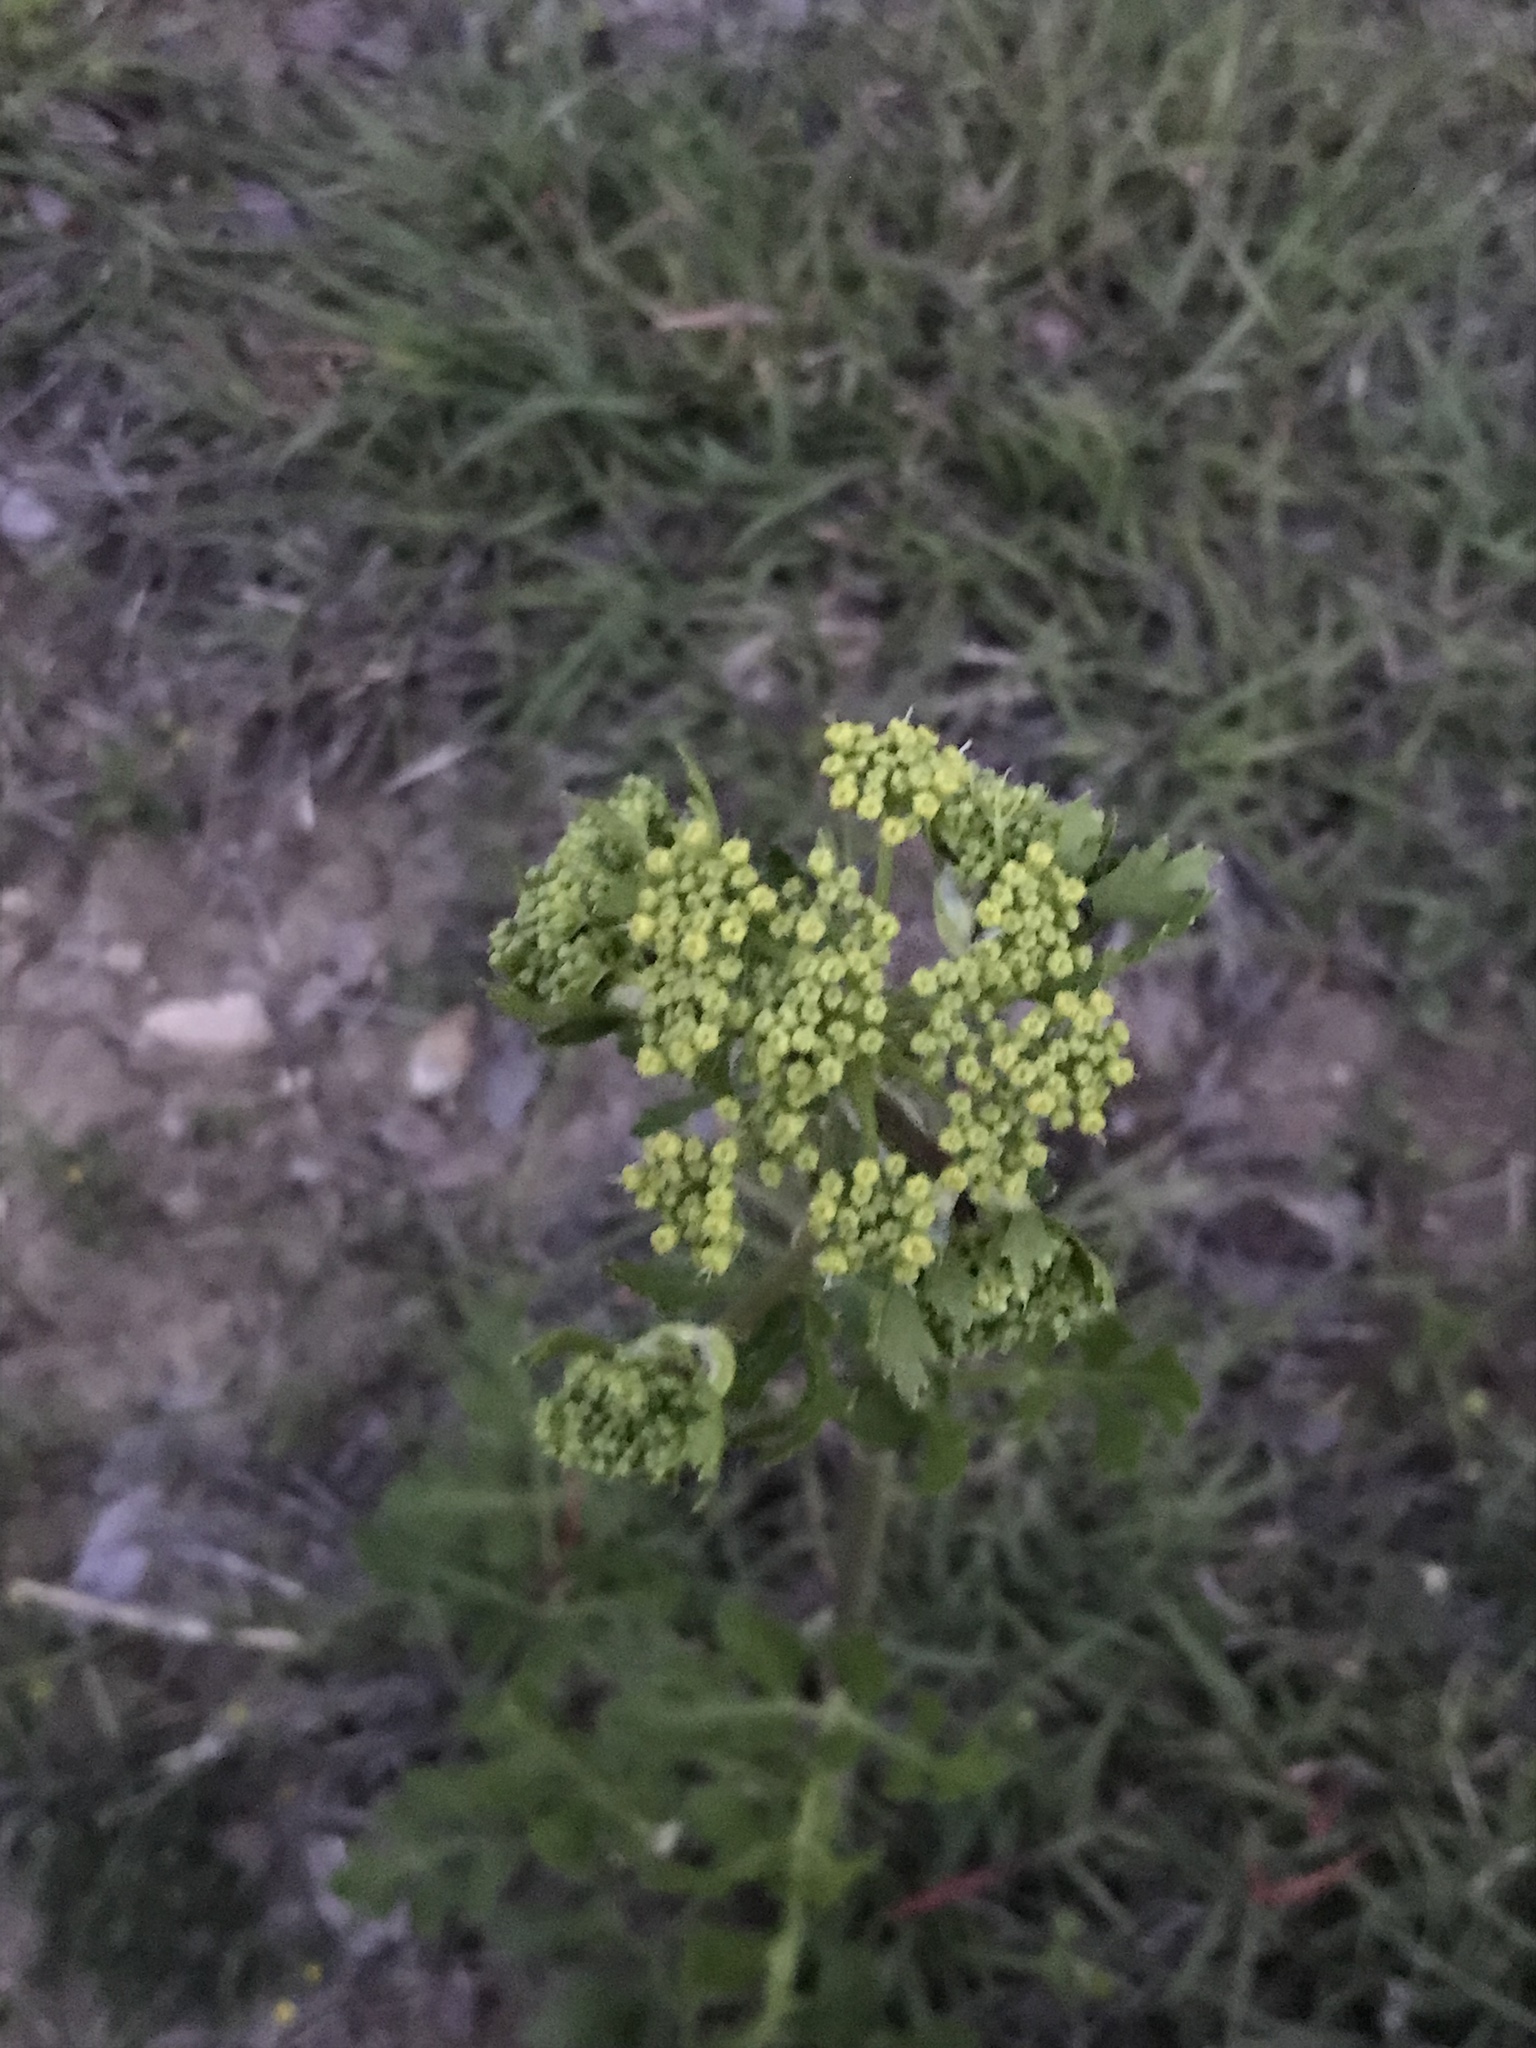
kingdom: Plantae
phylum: Tracheophyta
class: Magnoliopsida
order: Apiales
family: Apiaceae
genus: Polytaenia
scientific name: Polytaenia texana
